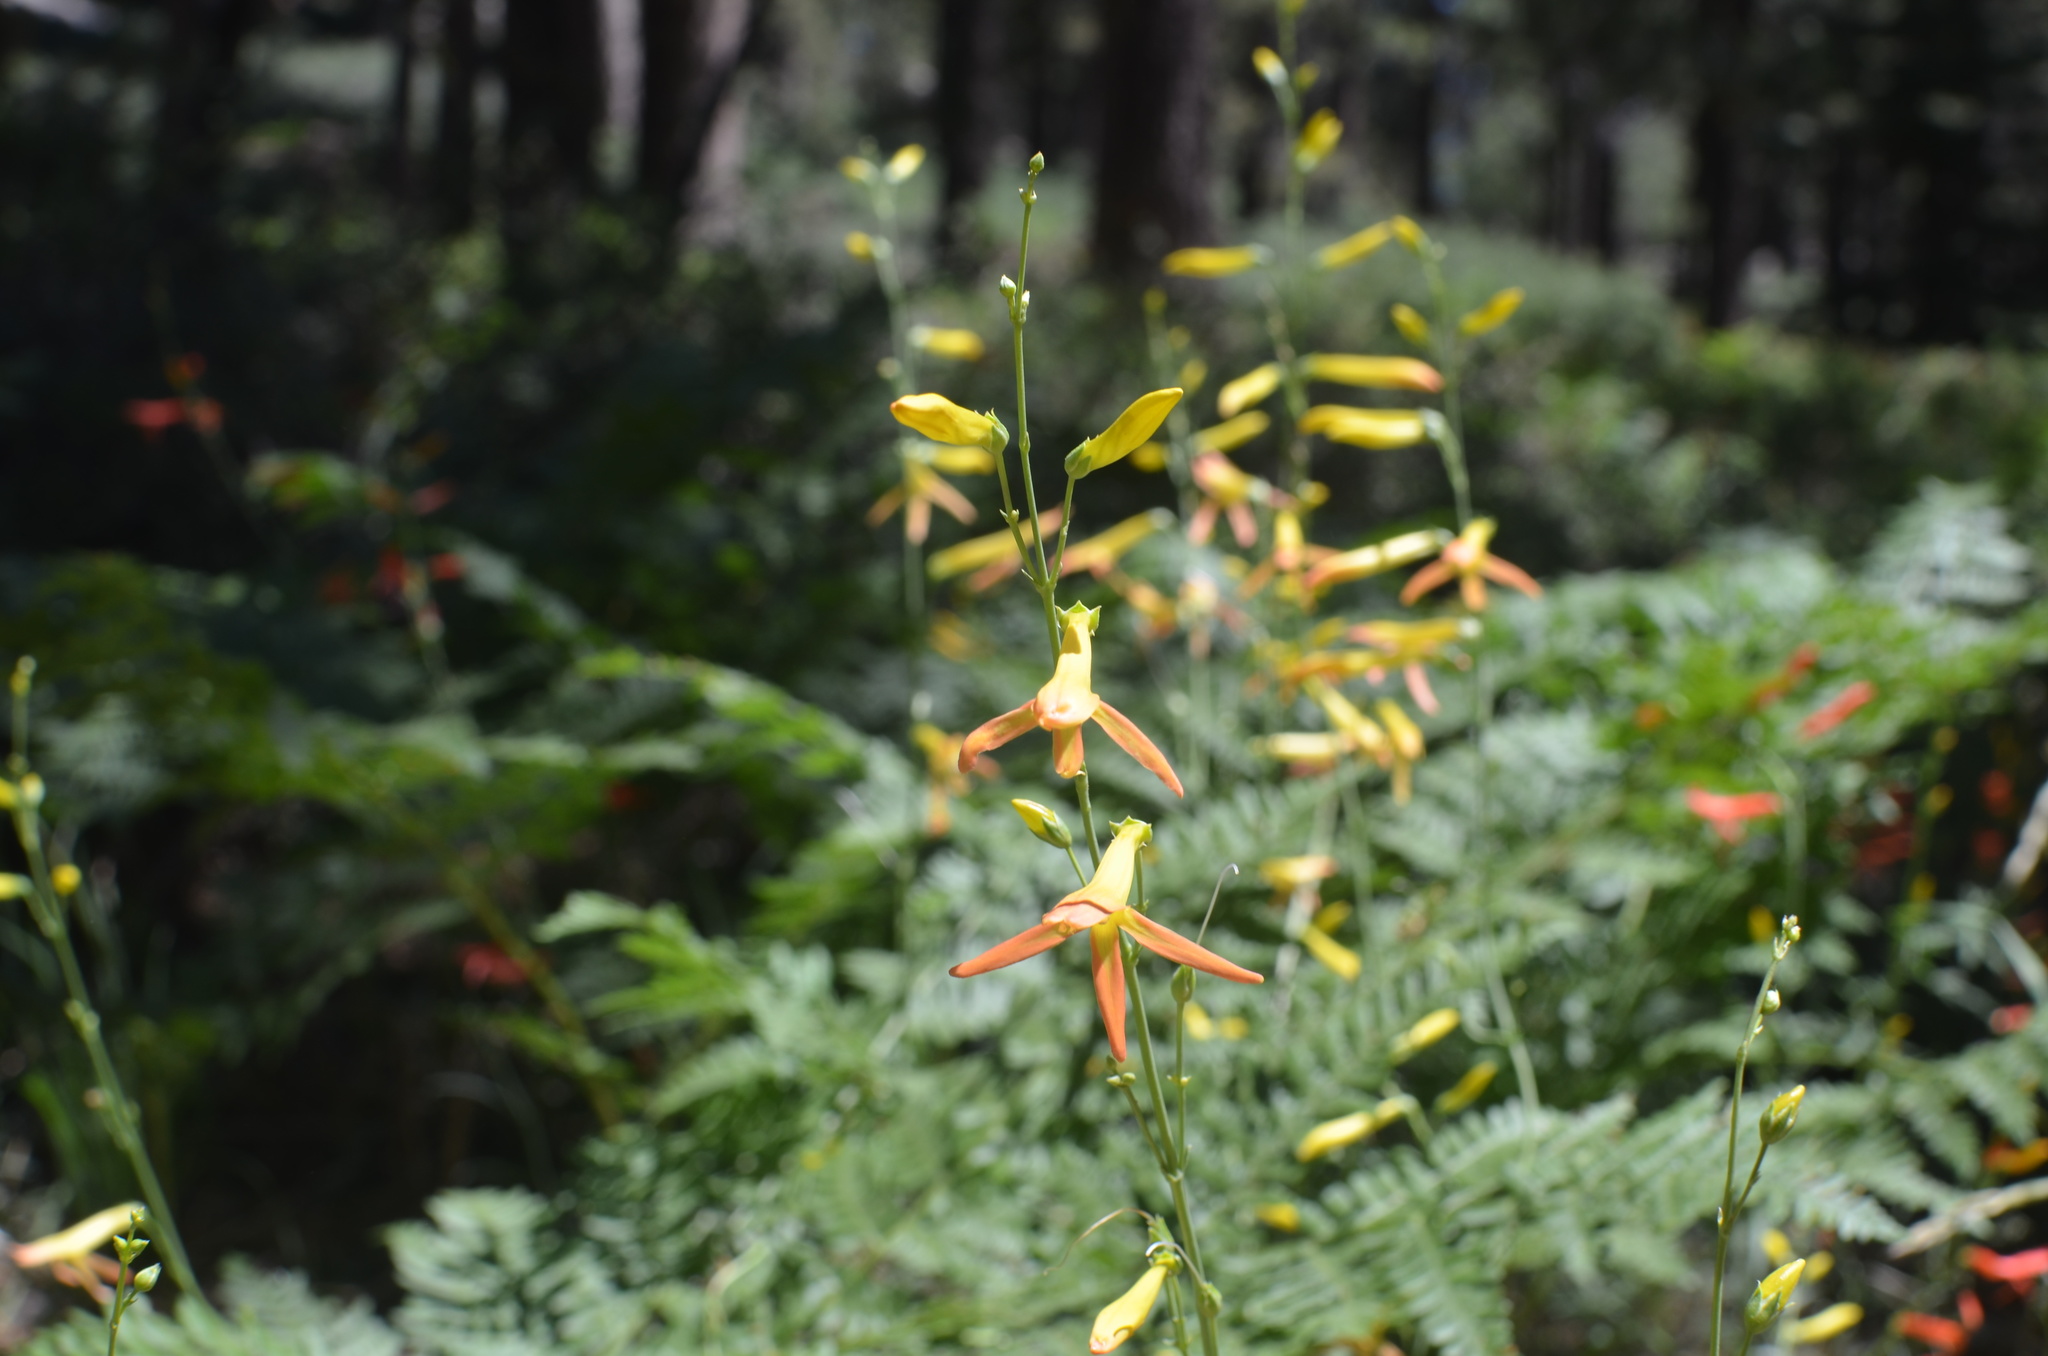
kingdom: Plantae
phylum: Tracheophyta
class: Magnoliopsida
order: Lamiales
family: Plantaginaceae
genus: Penstemon
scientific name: Penstemon labrosus
